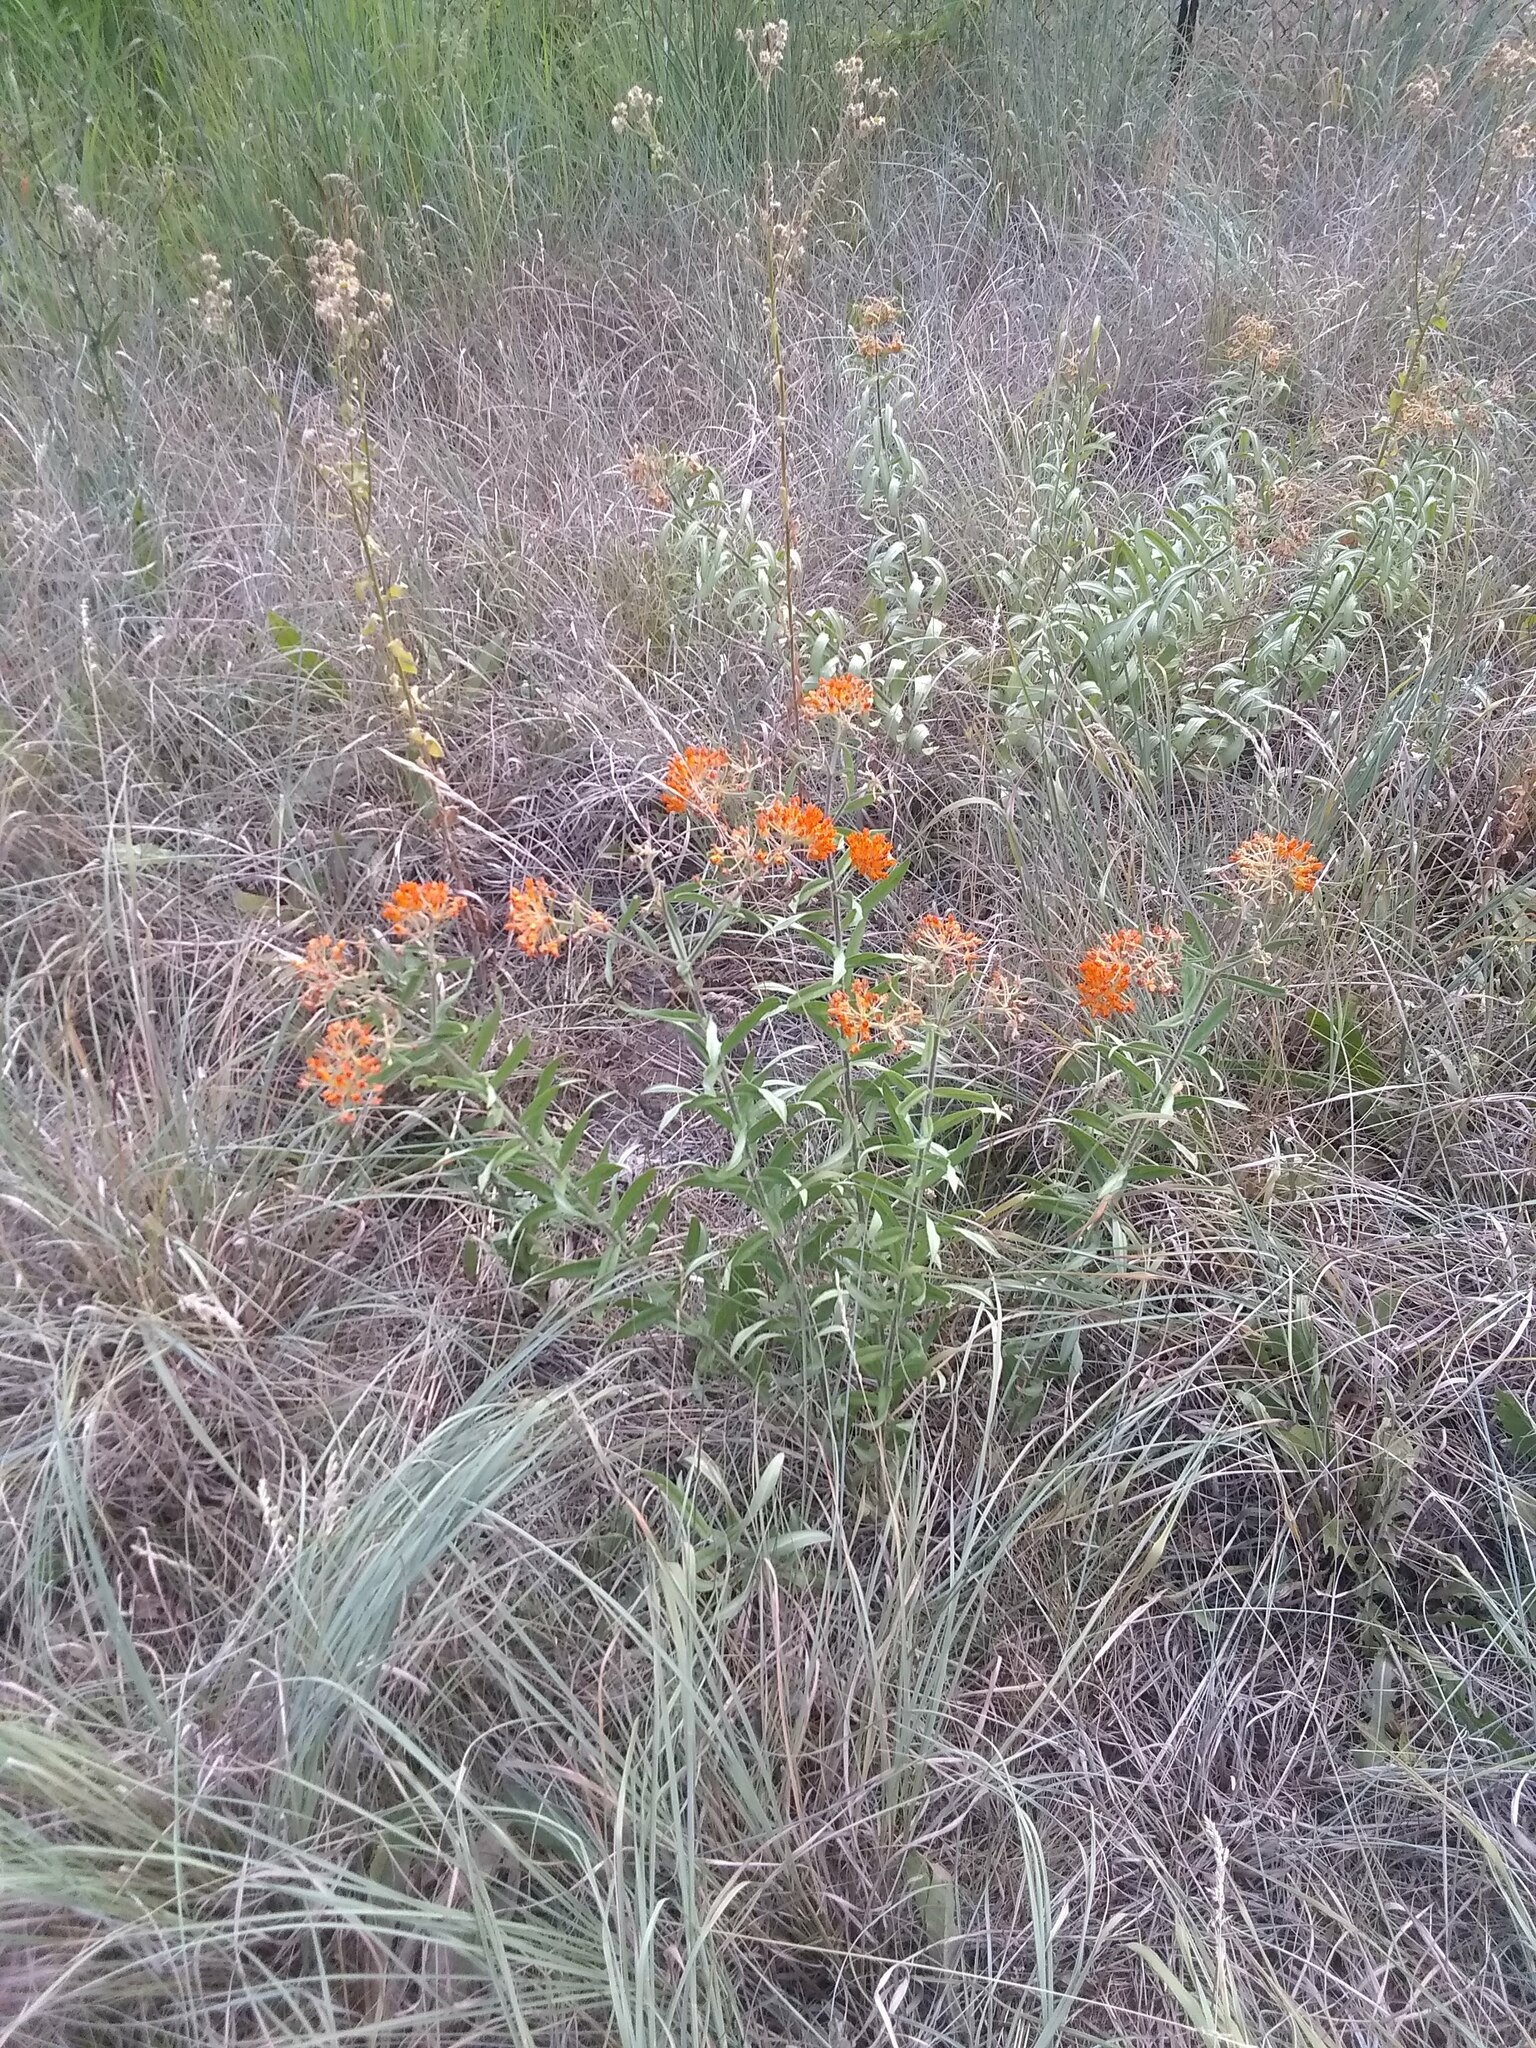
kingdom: Plantae
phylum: Tracheophyta
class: Magnoliopsida
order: Gentianales
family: Apocynaceae
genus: Asclepias
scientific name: Asclepias tuberosa
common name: Butterfly milkweed
